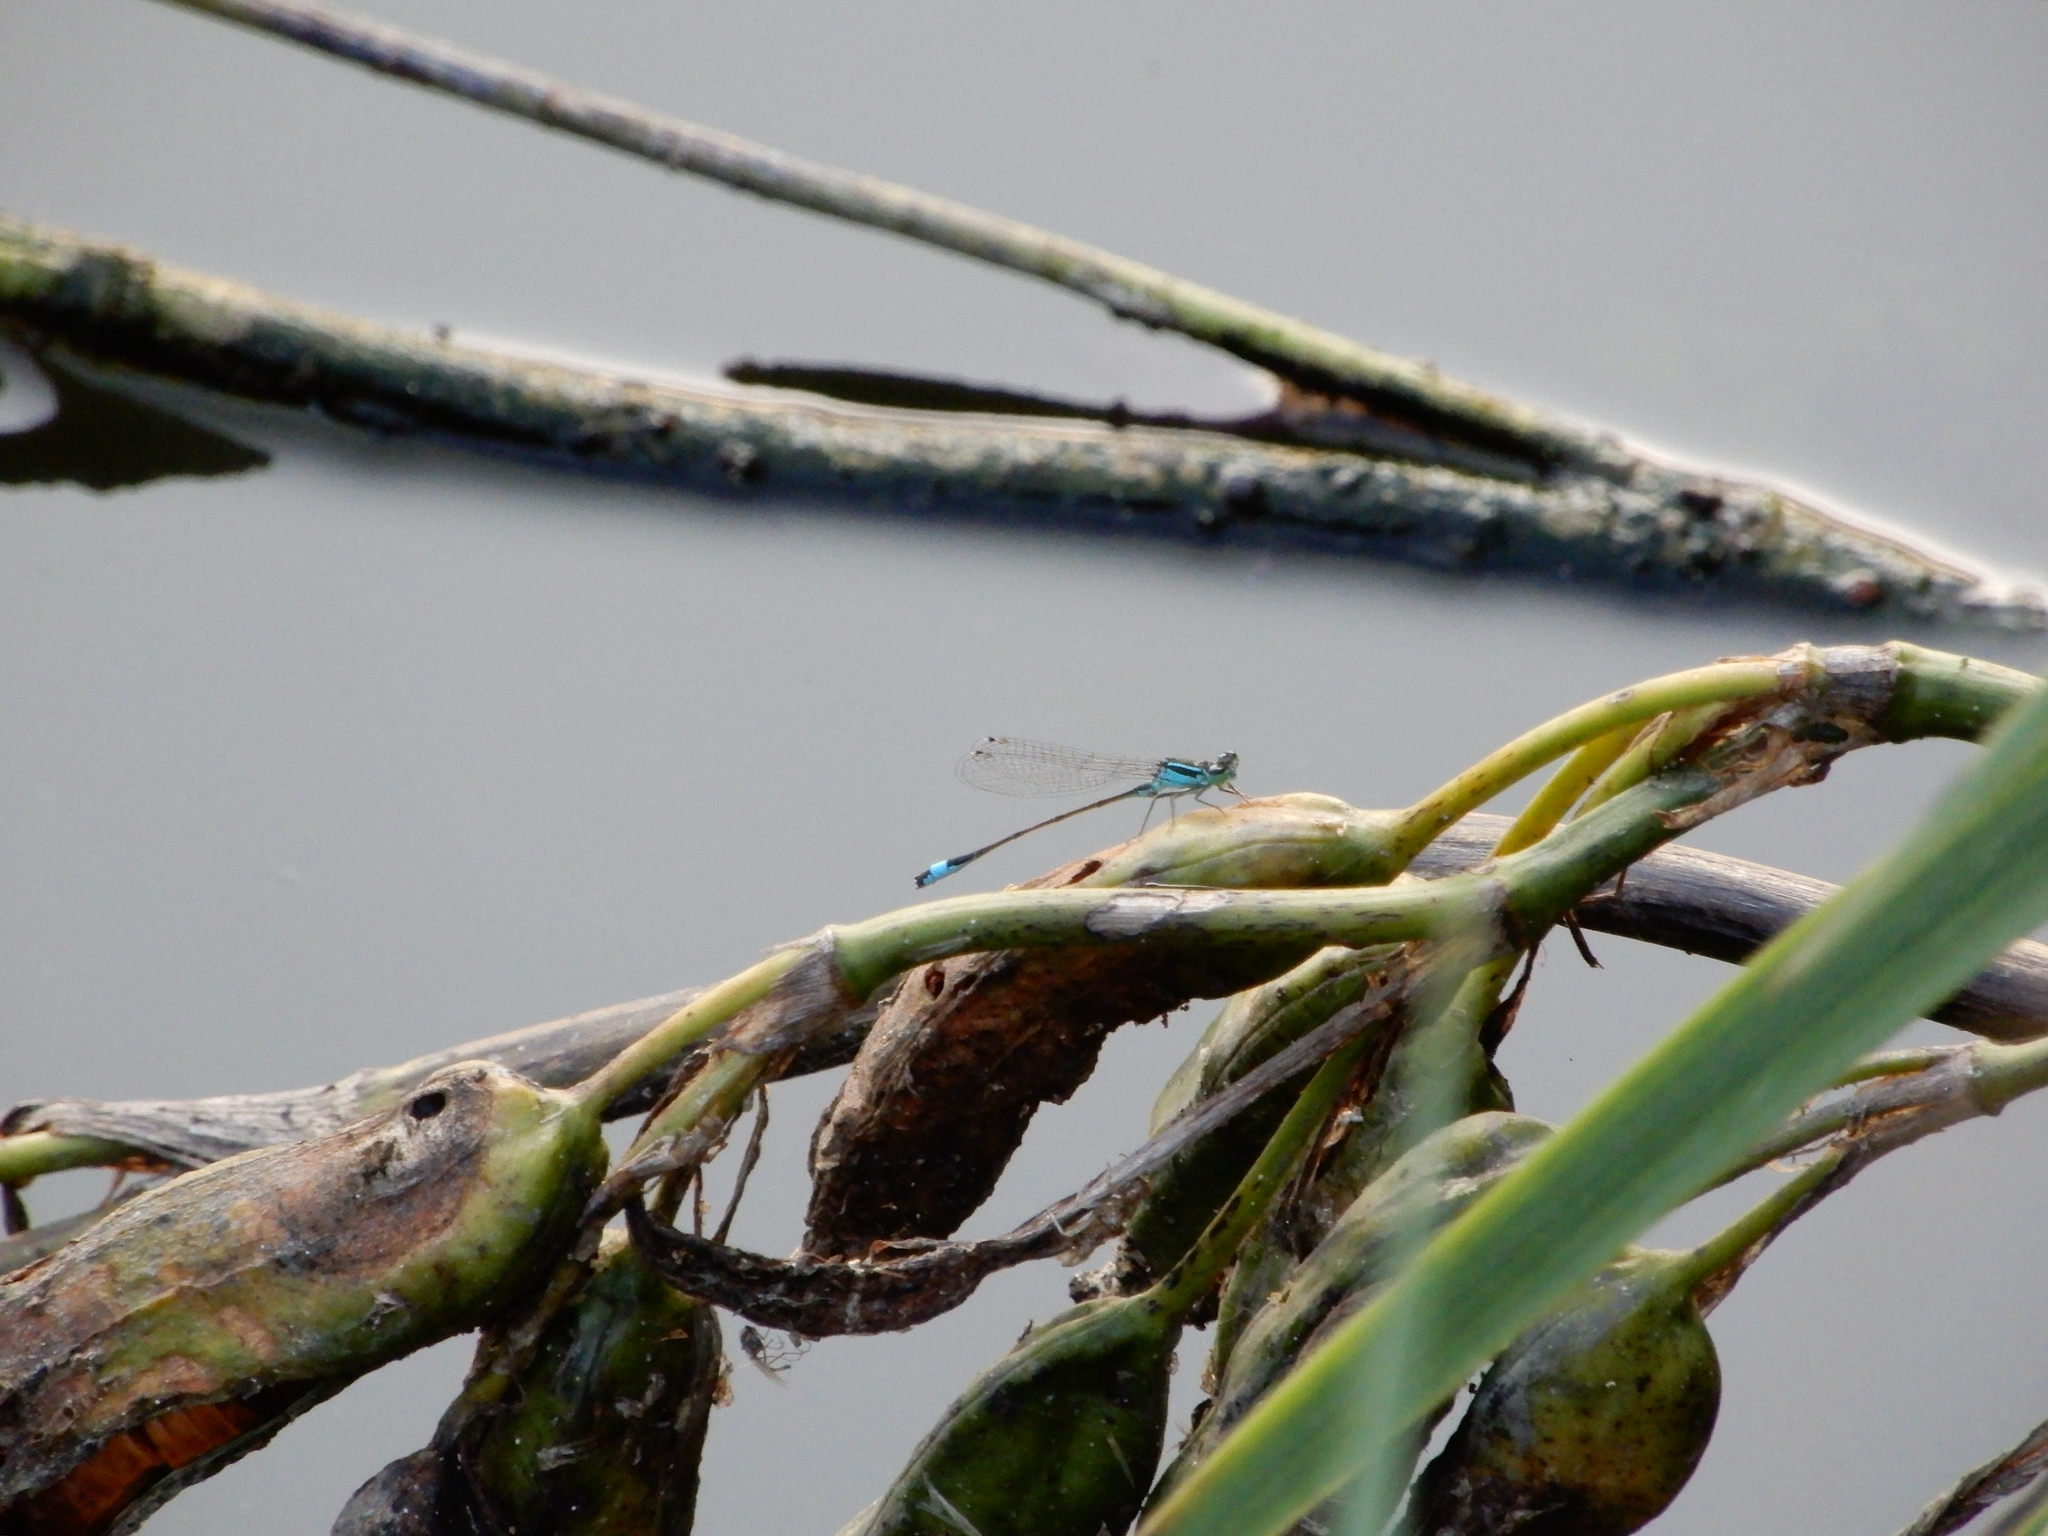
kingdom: Animalia
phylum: Arthropoda
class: Insecta
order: Odonata
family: Coenagrionidae
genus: Ischnura
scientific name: Ischnura elegans
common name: Blue-tailed damselfly
